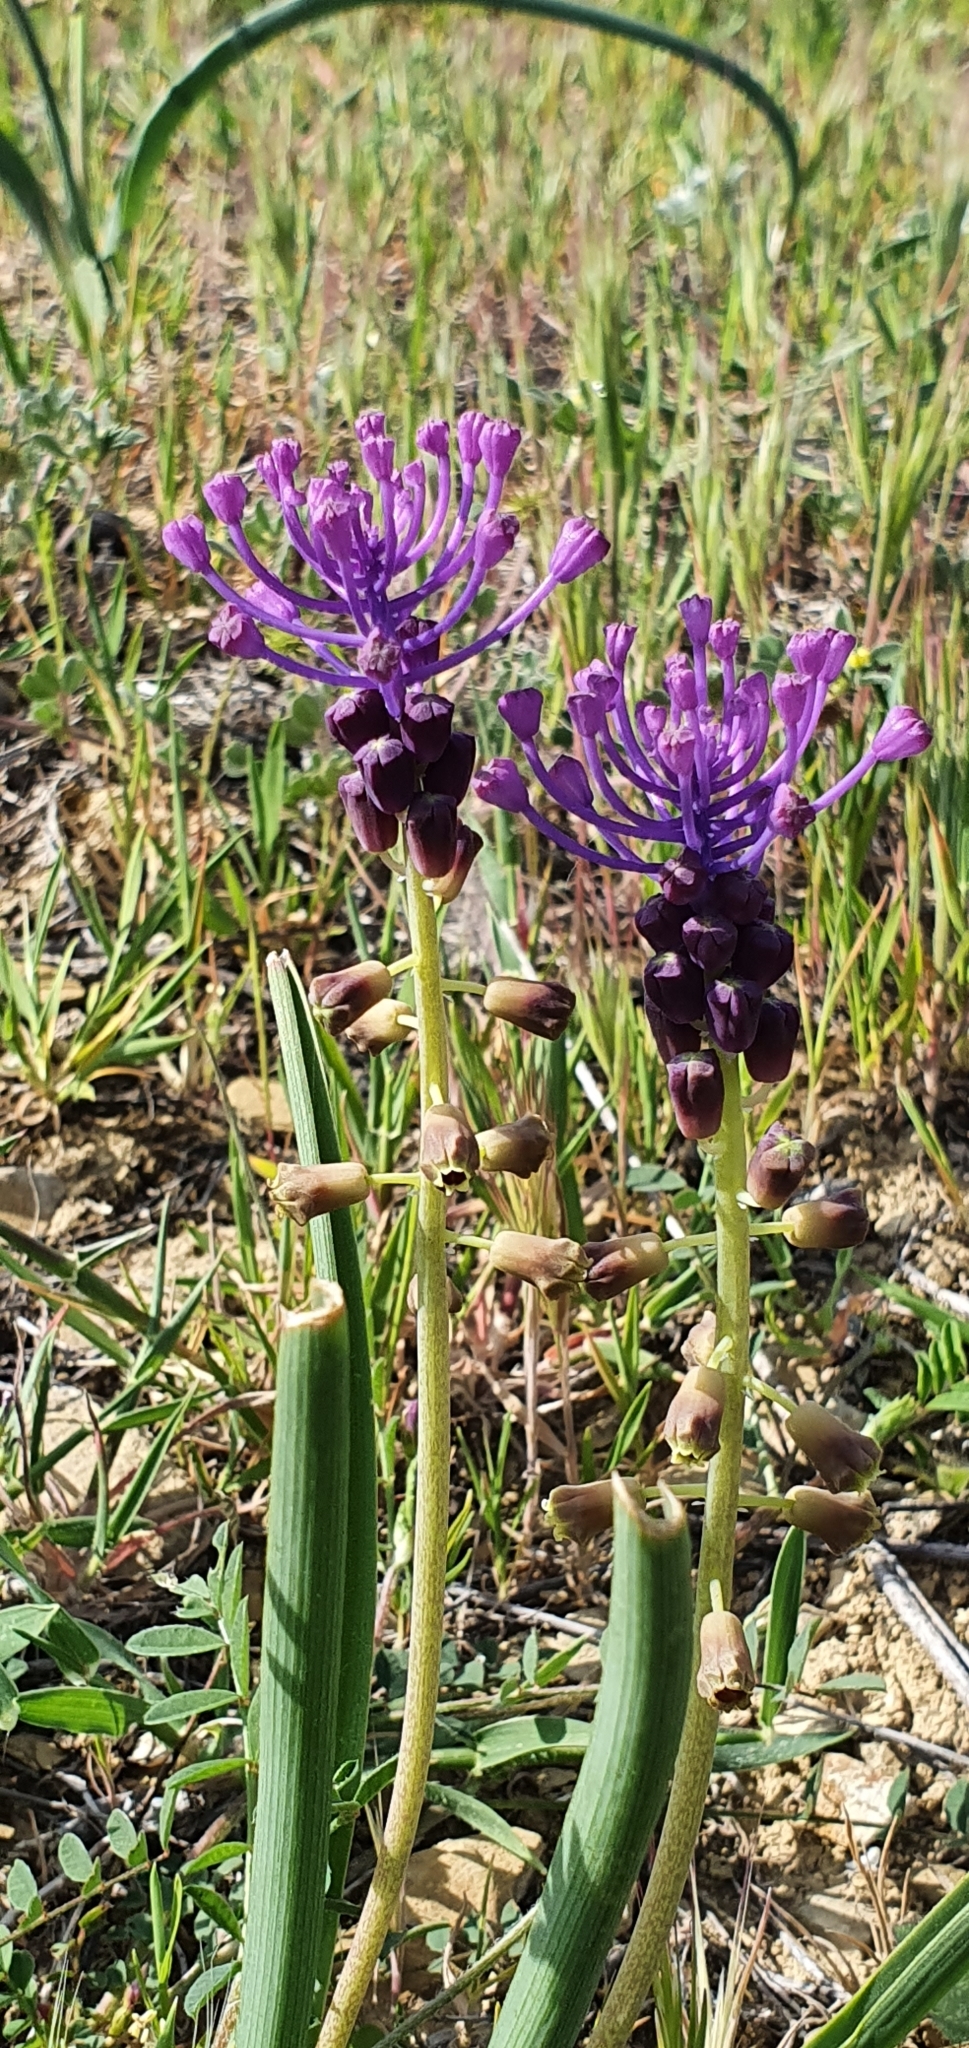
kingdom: Plantae
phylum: Tracheophyta
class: Liliopsida
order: Asparagales
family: Asparagaceae
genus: Muscari
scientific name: Muscari comosum
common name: Tassel hyacinth
